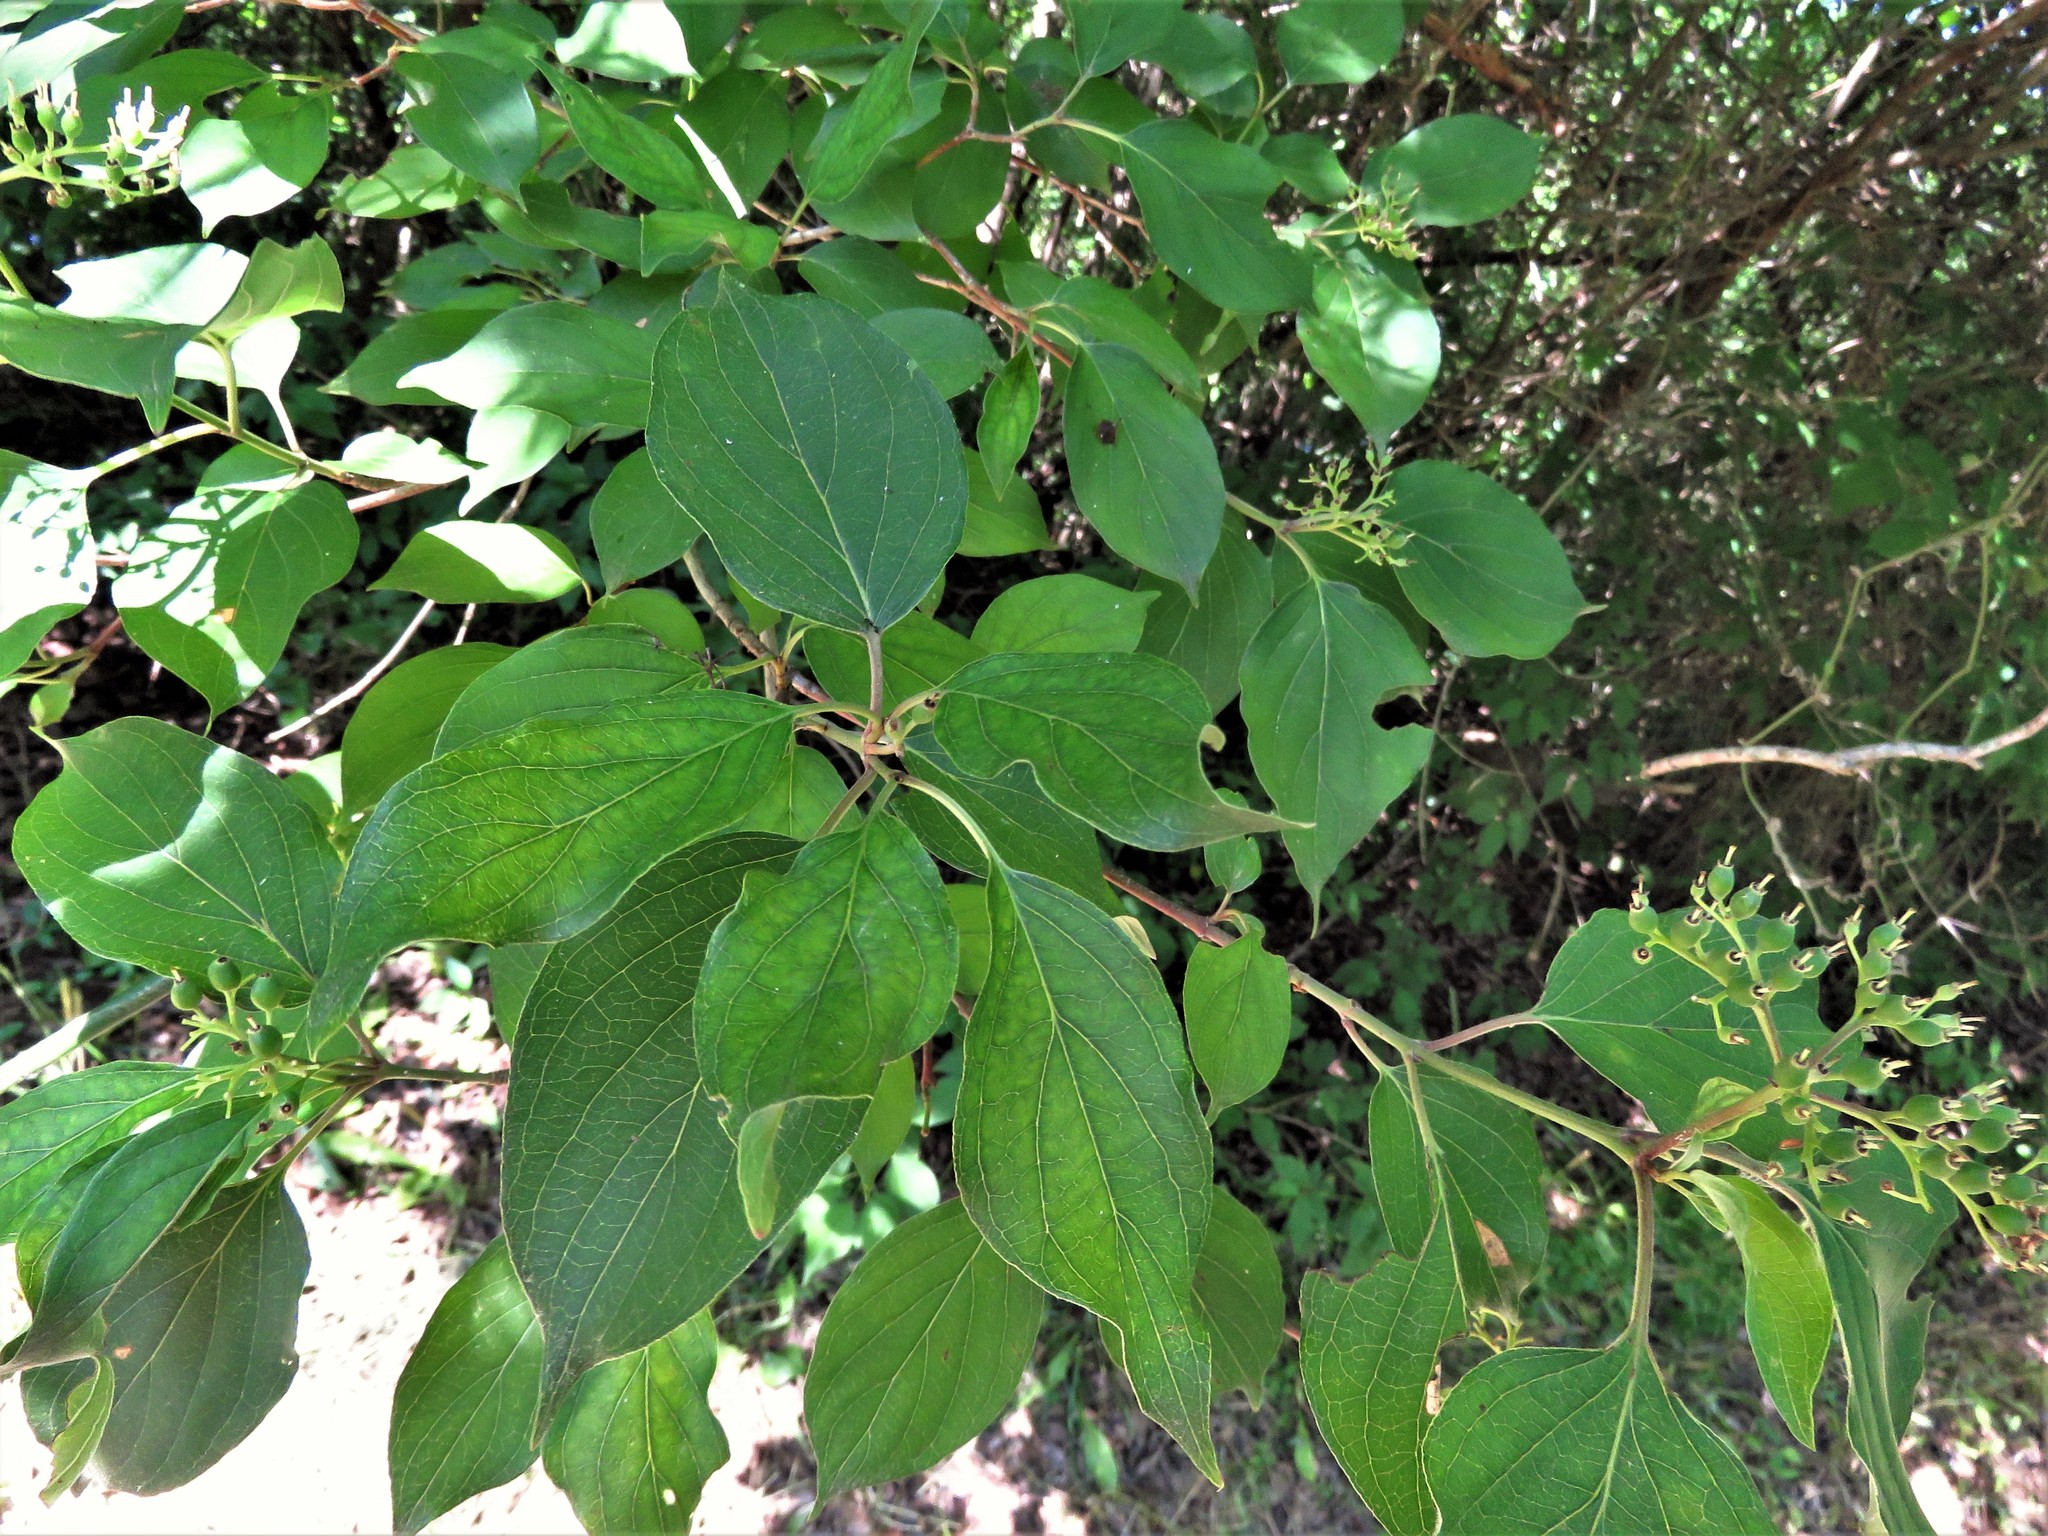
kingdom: Plantae
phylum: Tracheophyta
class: Magnoliopsida
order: Cornales
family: Cornaceae
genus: Cornus
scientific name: Cornus drummondii
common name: Rough-leaf dogwood
